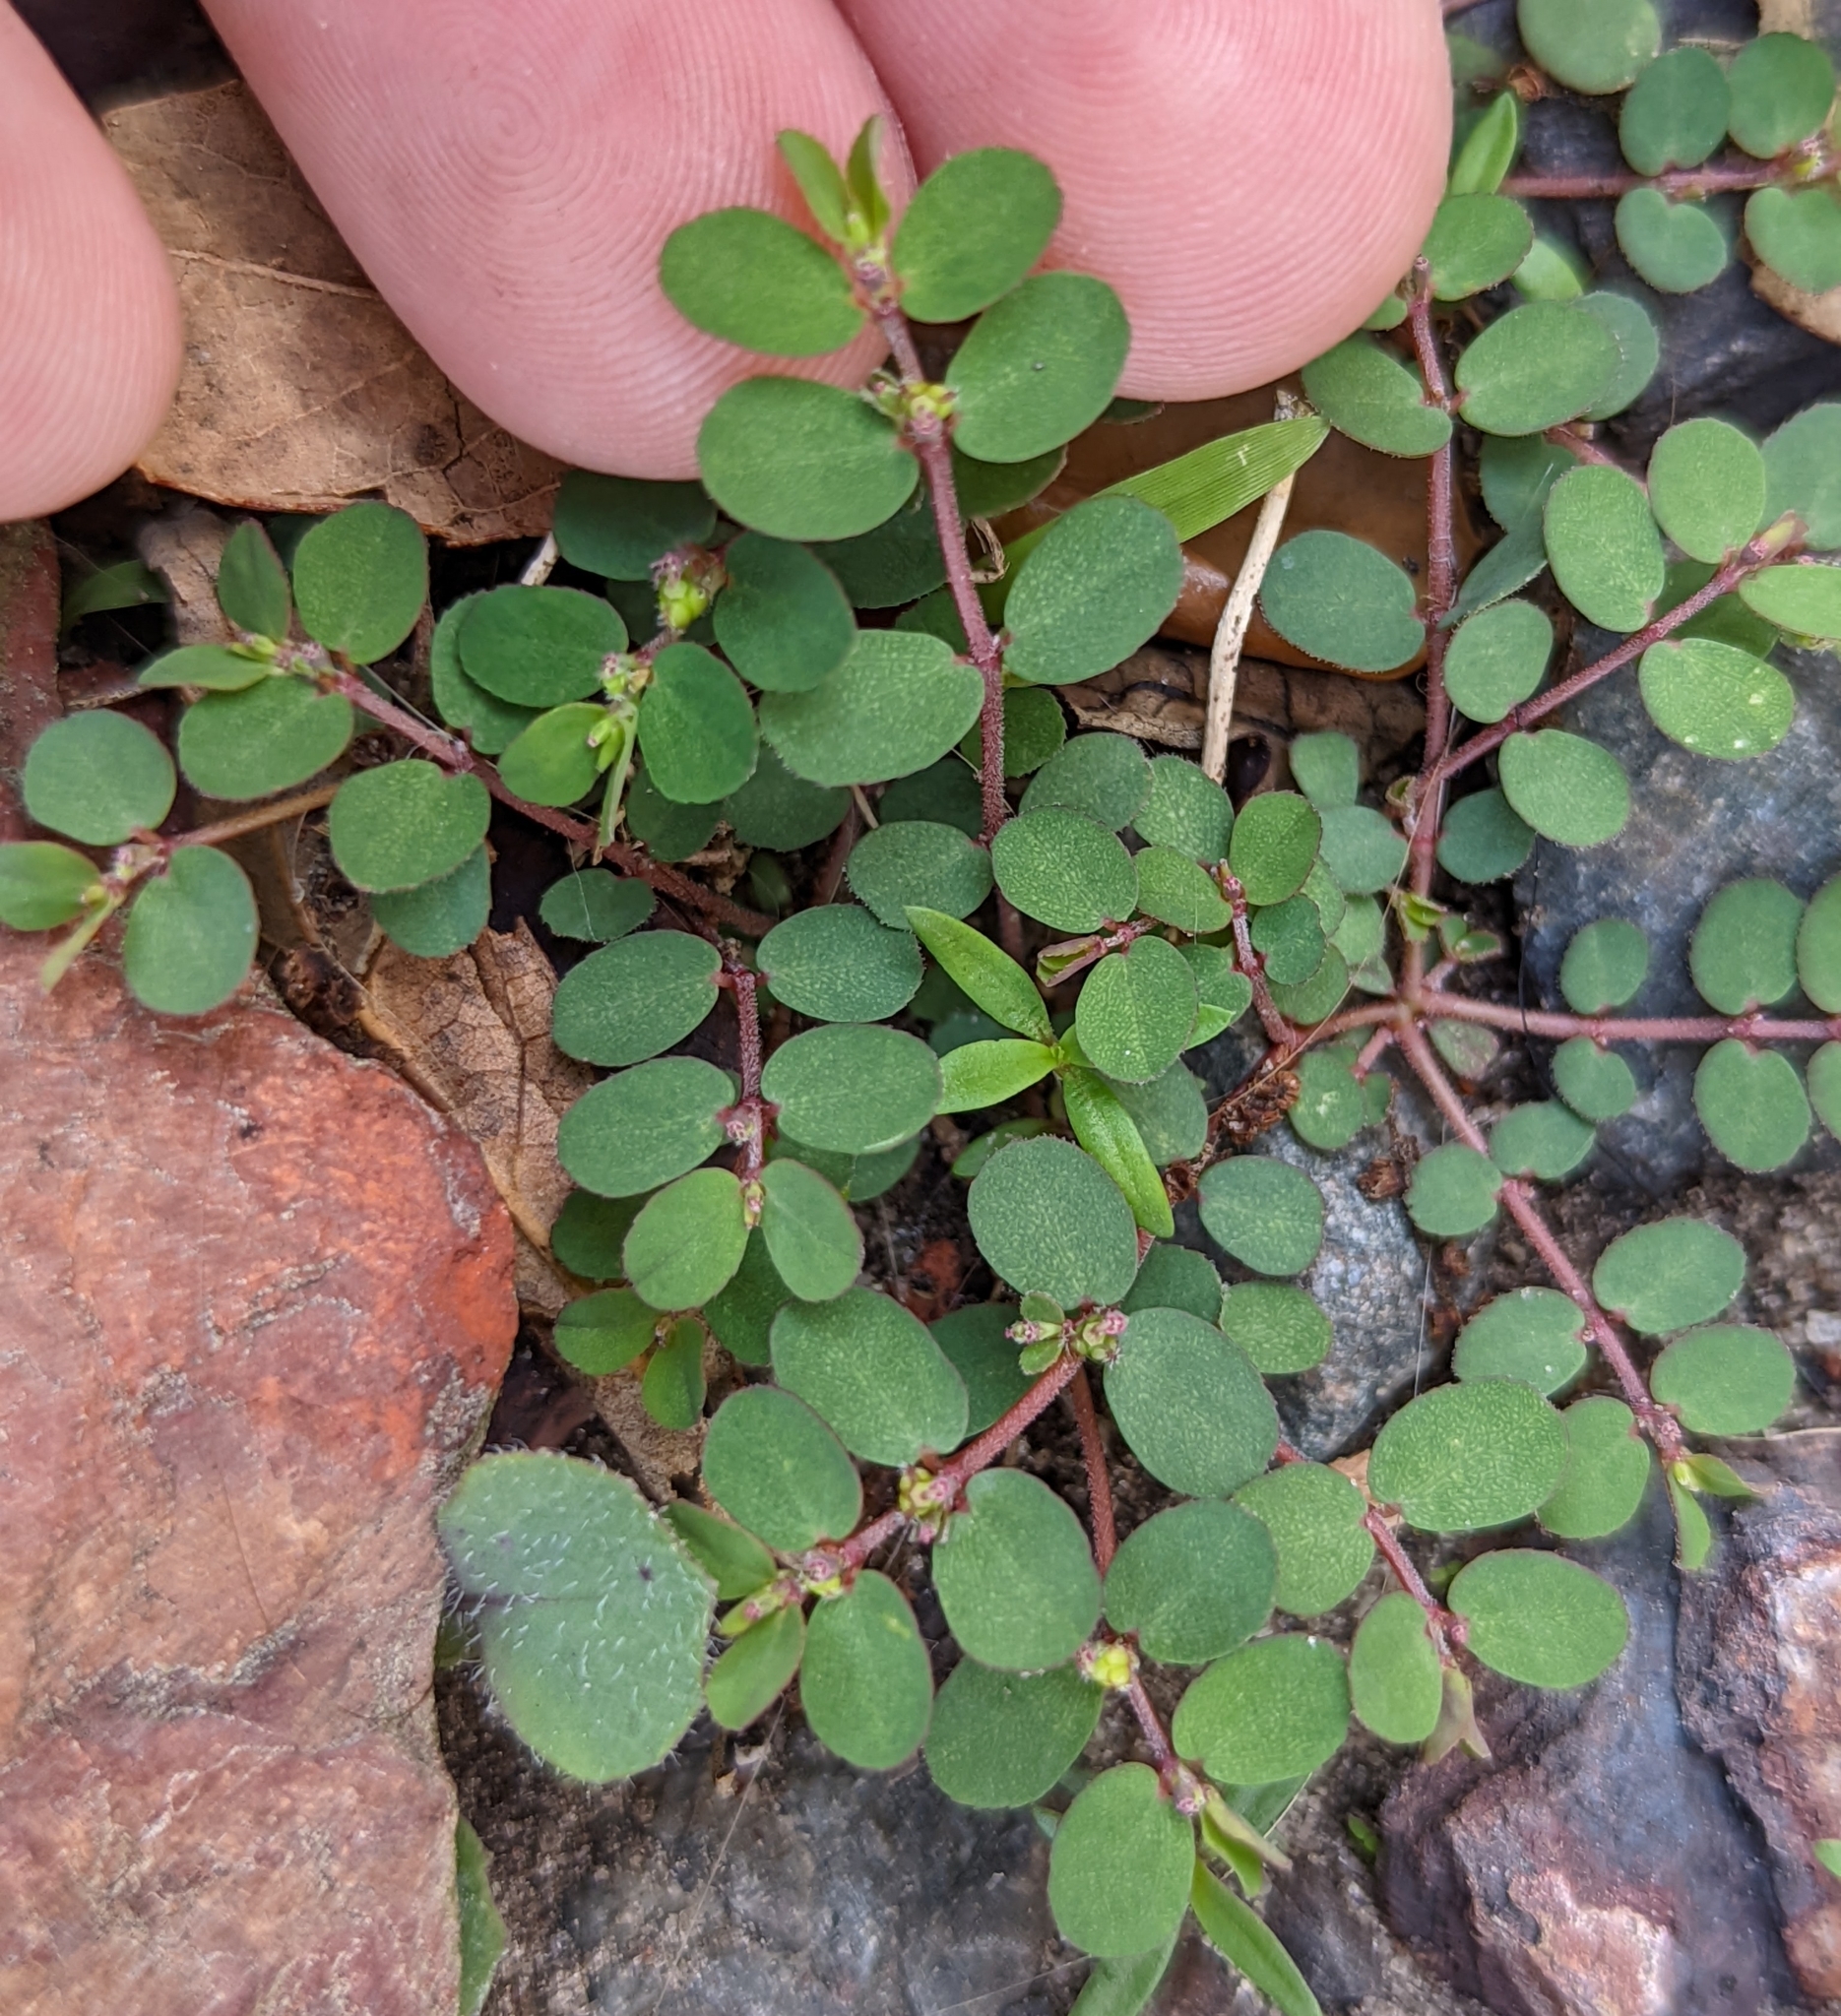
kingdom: Plantae
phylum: Tracheophyta
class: Magnoliopsida
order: Malpighiales
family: Euphorbiaceae
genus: Euphorbia
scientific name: Euphorbia prostrata
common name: Prostrate sandmat
